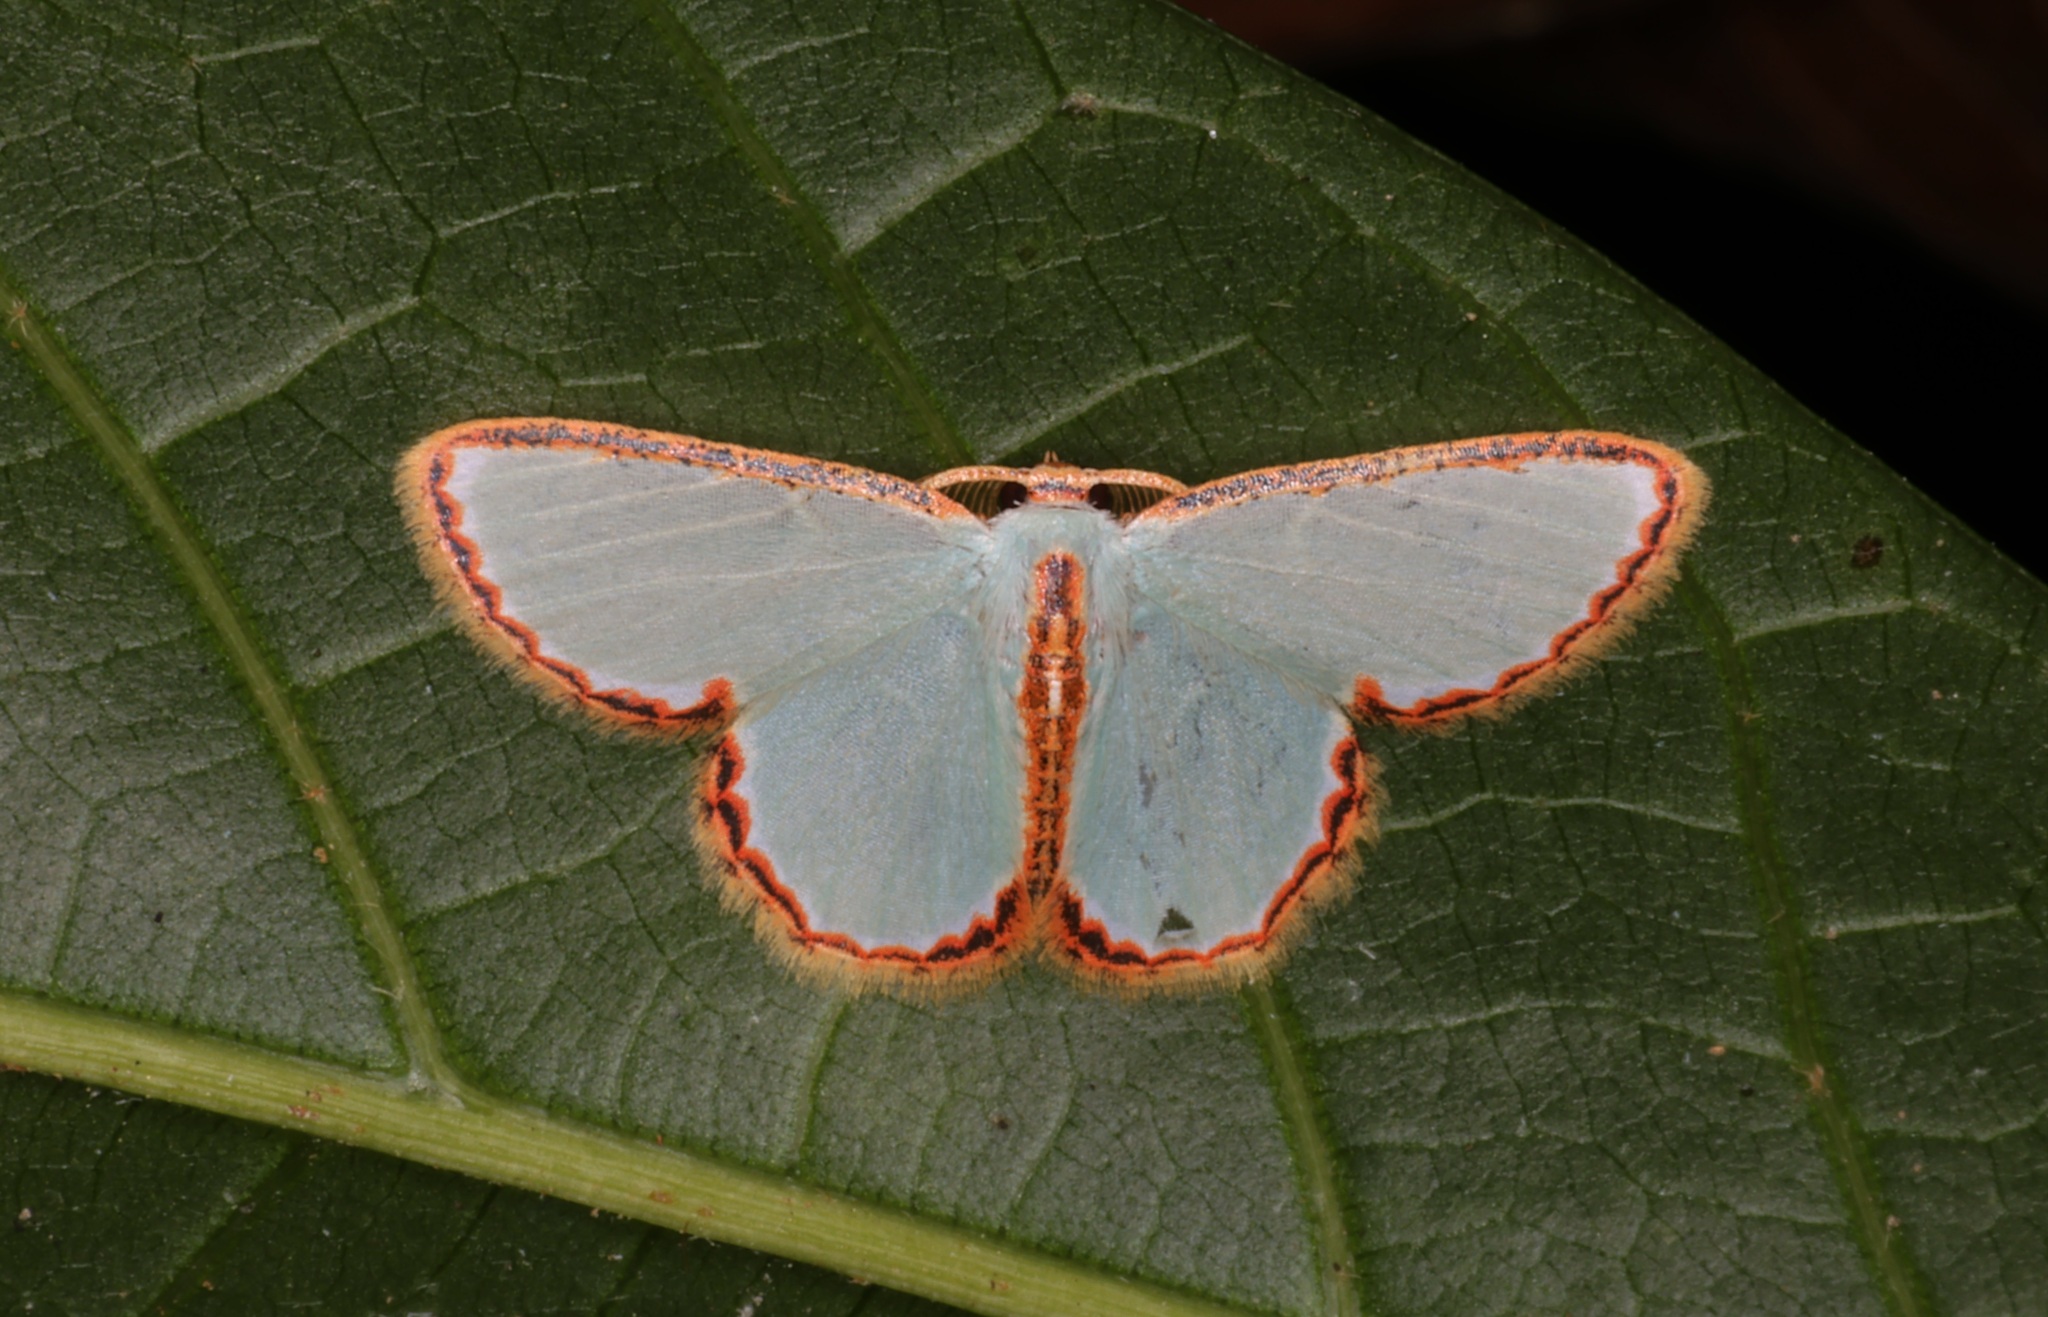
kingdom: Animalia
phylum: Arthropoda
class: Insecta
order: Lepidoptera
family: Geometridae
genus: Comostola
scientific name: Comostola pyrrhogona
